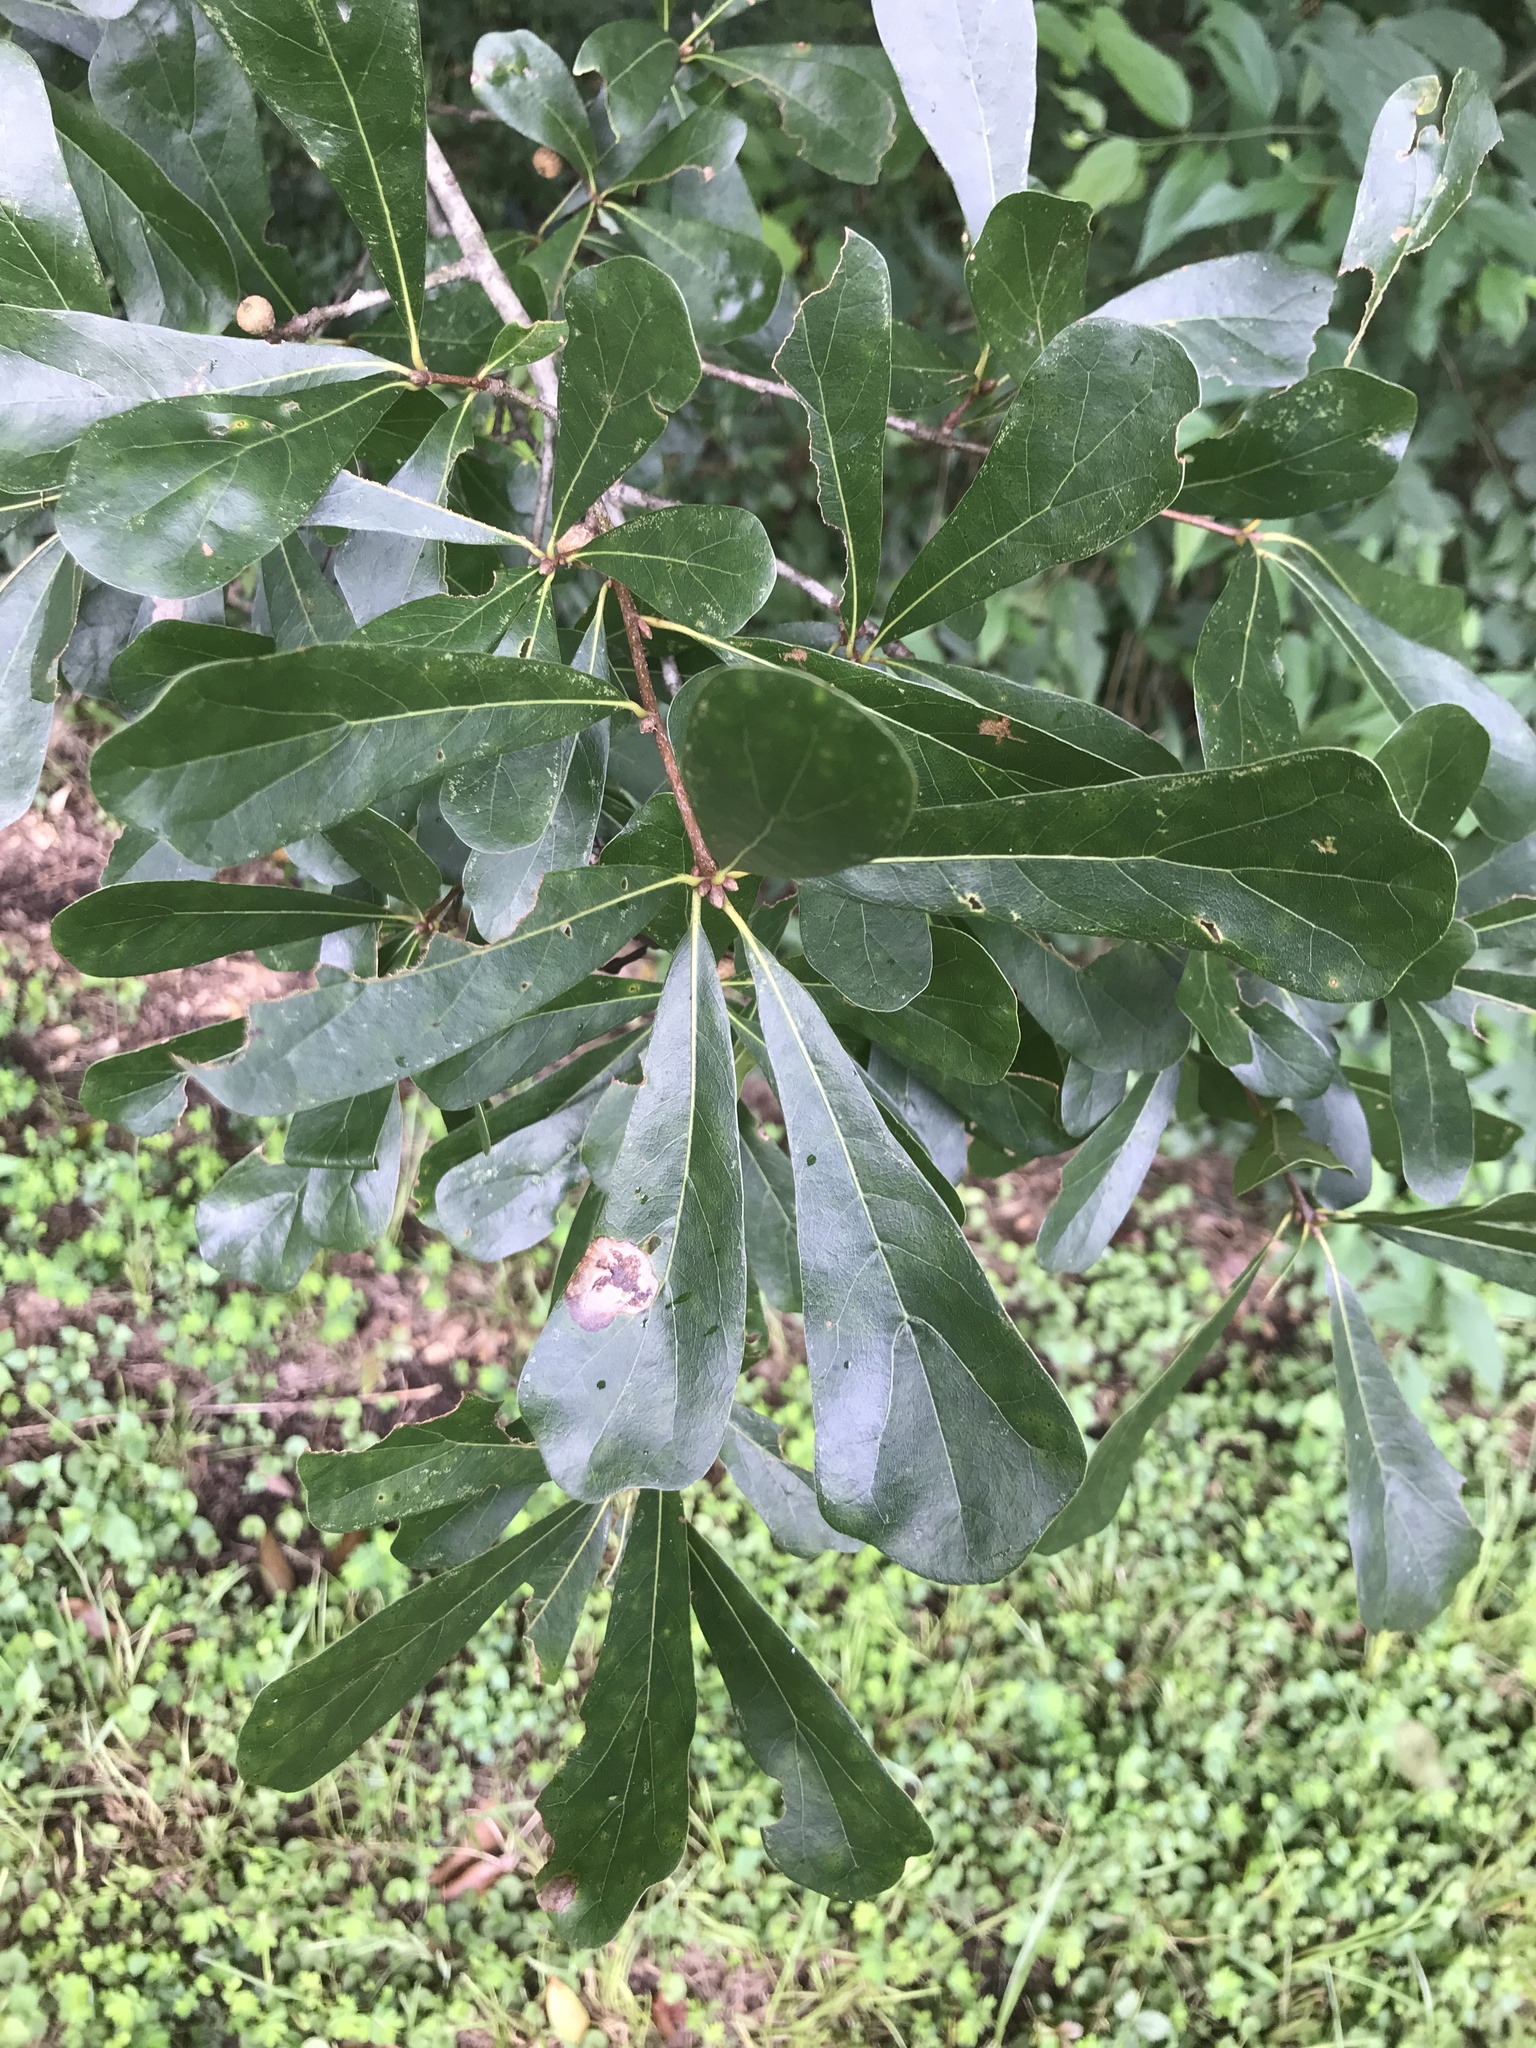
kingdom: Plantae
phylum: Tracheophyta
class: Magnoliopsida
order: Fagales
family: Fagaceae
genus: Quercus
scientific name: Quercus nigra
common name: Water oak
